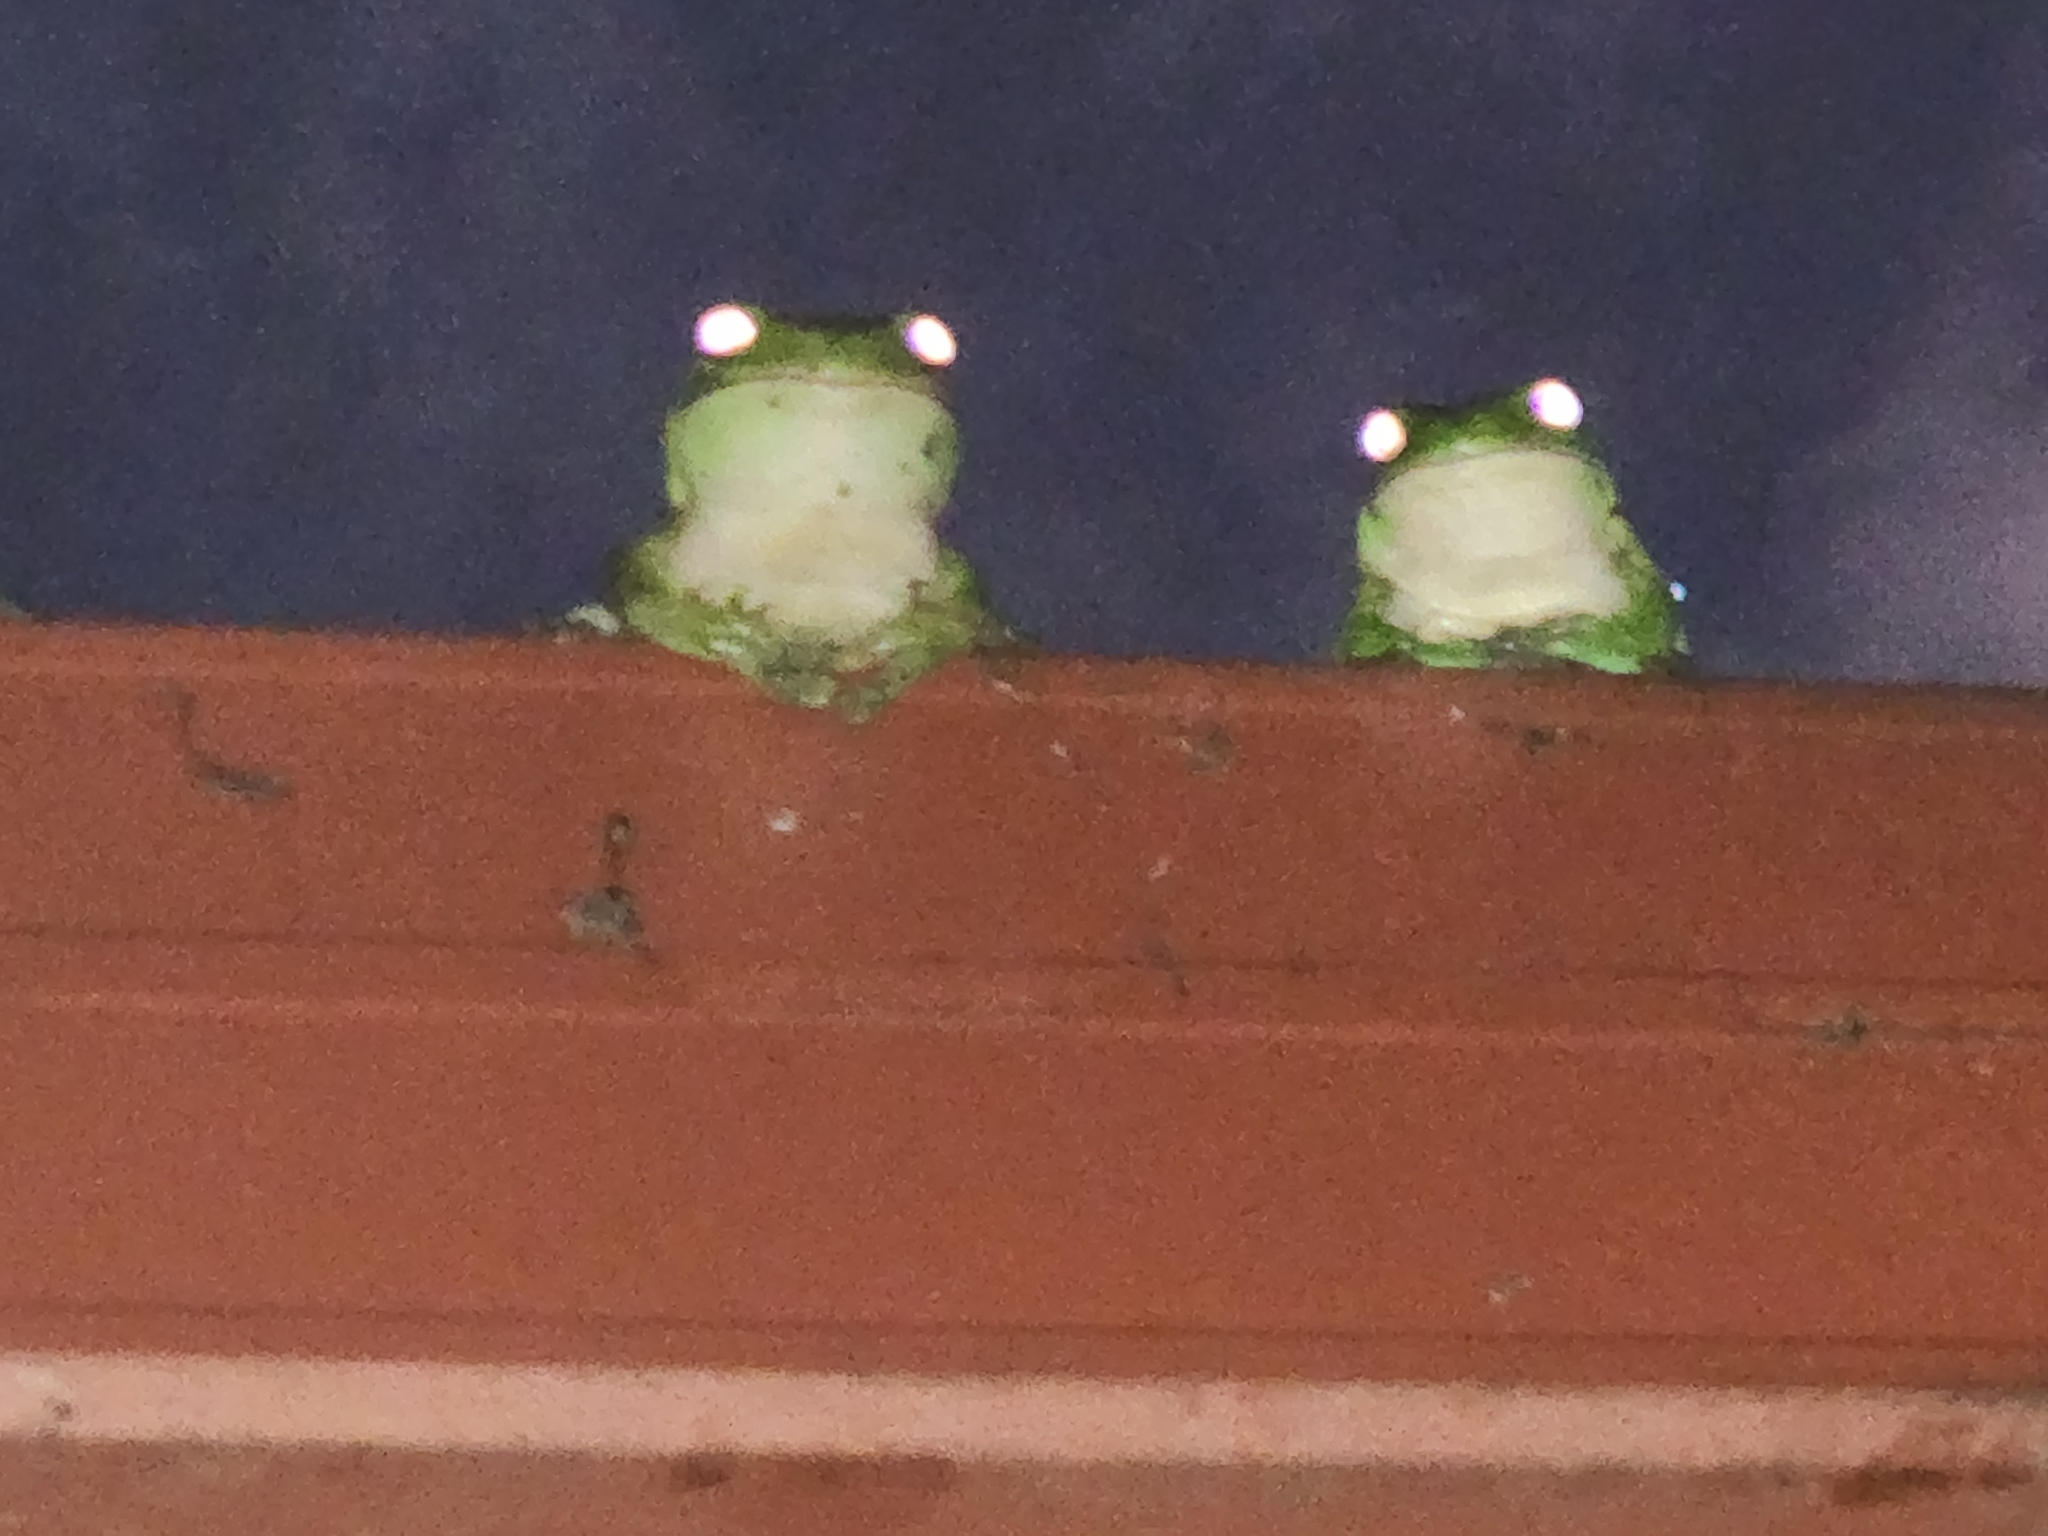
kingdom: Animalia
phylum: Chordata
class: Amphibia
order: Anura
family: Pelodryadidae
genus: Ranoidea
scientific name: Ranoidea caerulea
